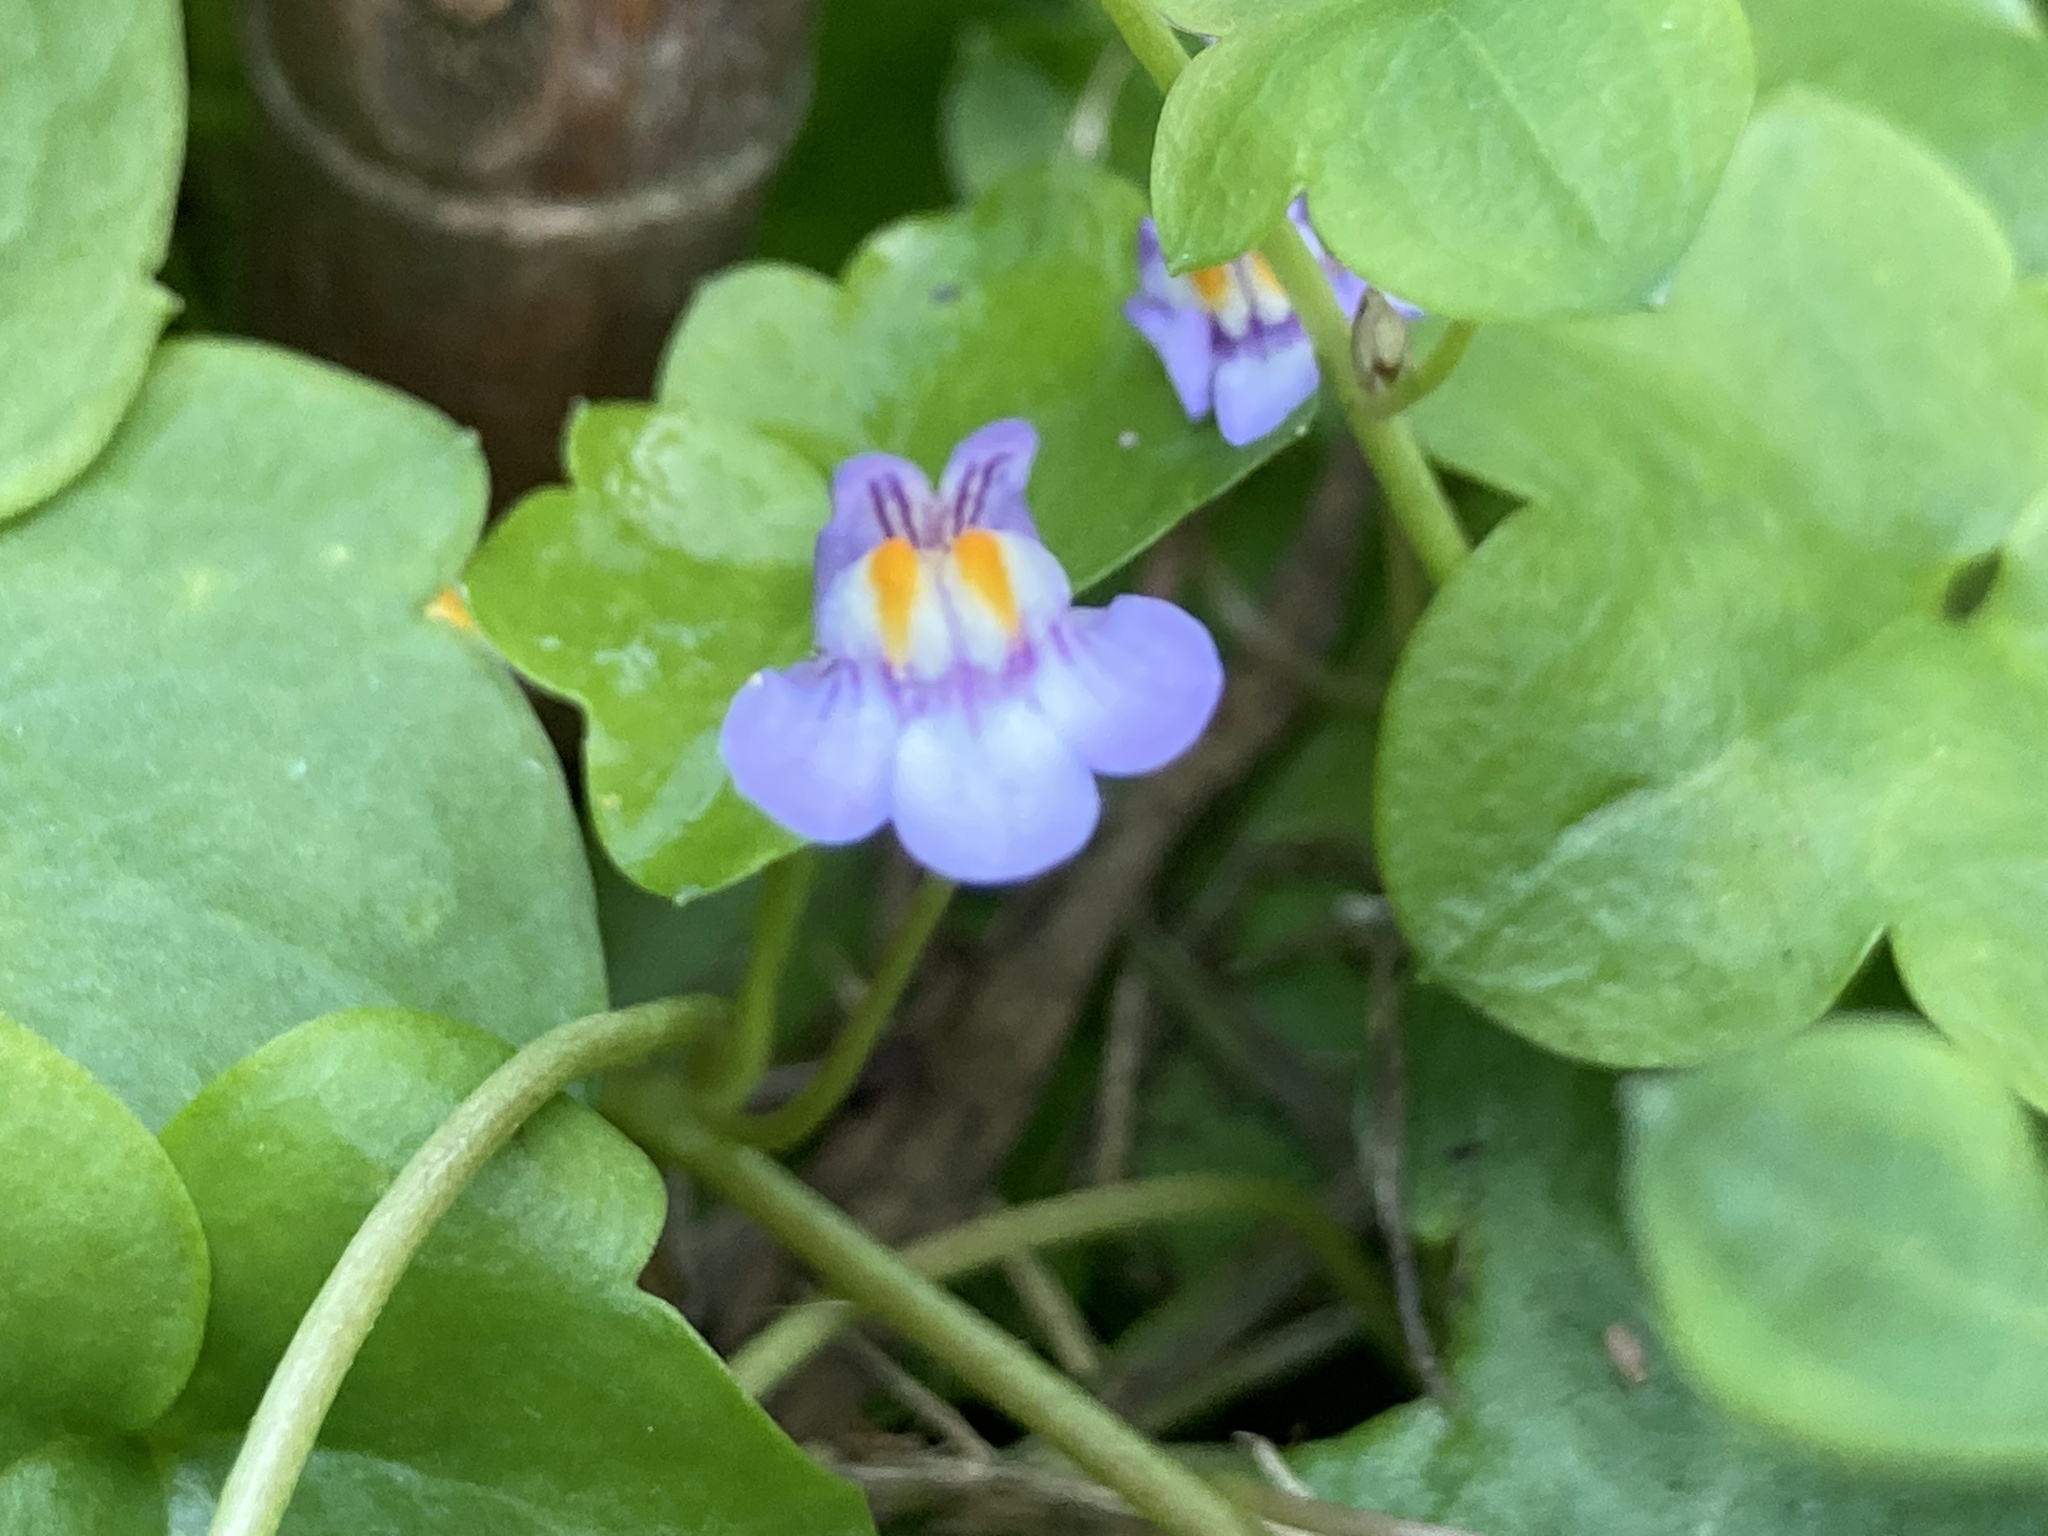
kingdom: Plantae
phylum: Tracheophyta
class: Magnoliopsida
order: Lamiales
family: Plantaginaceae
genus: Cymbalaria
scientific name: Cymbalaria muralis
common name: Ivy-leaved toadflax
